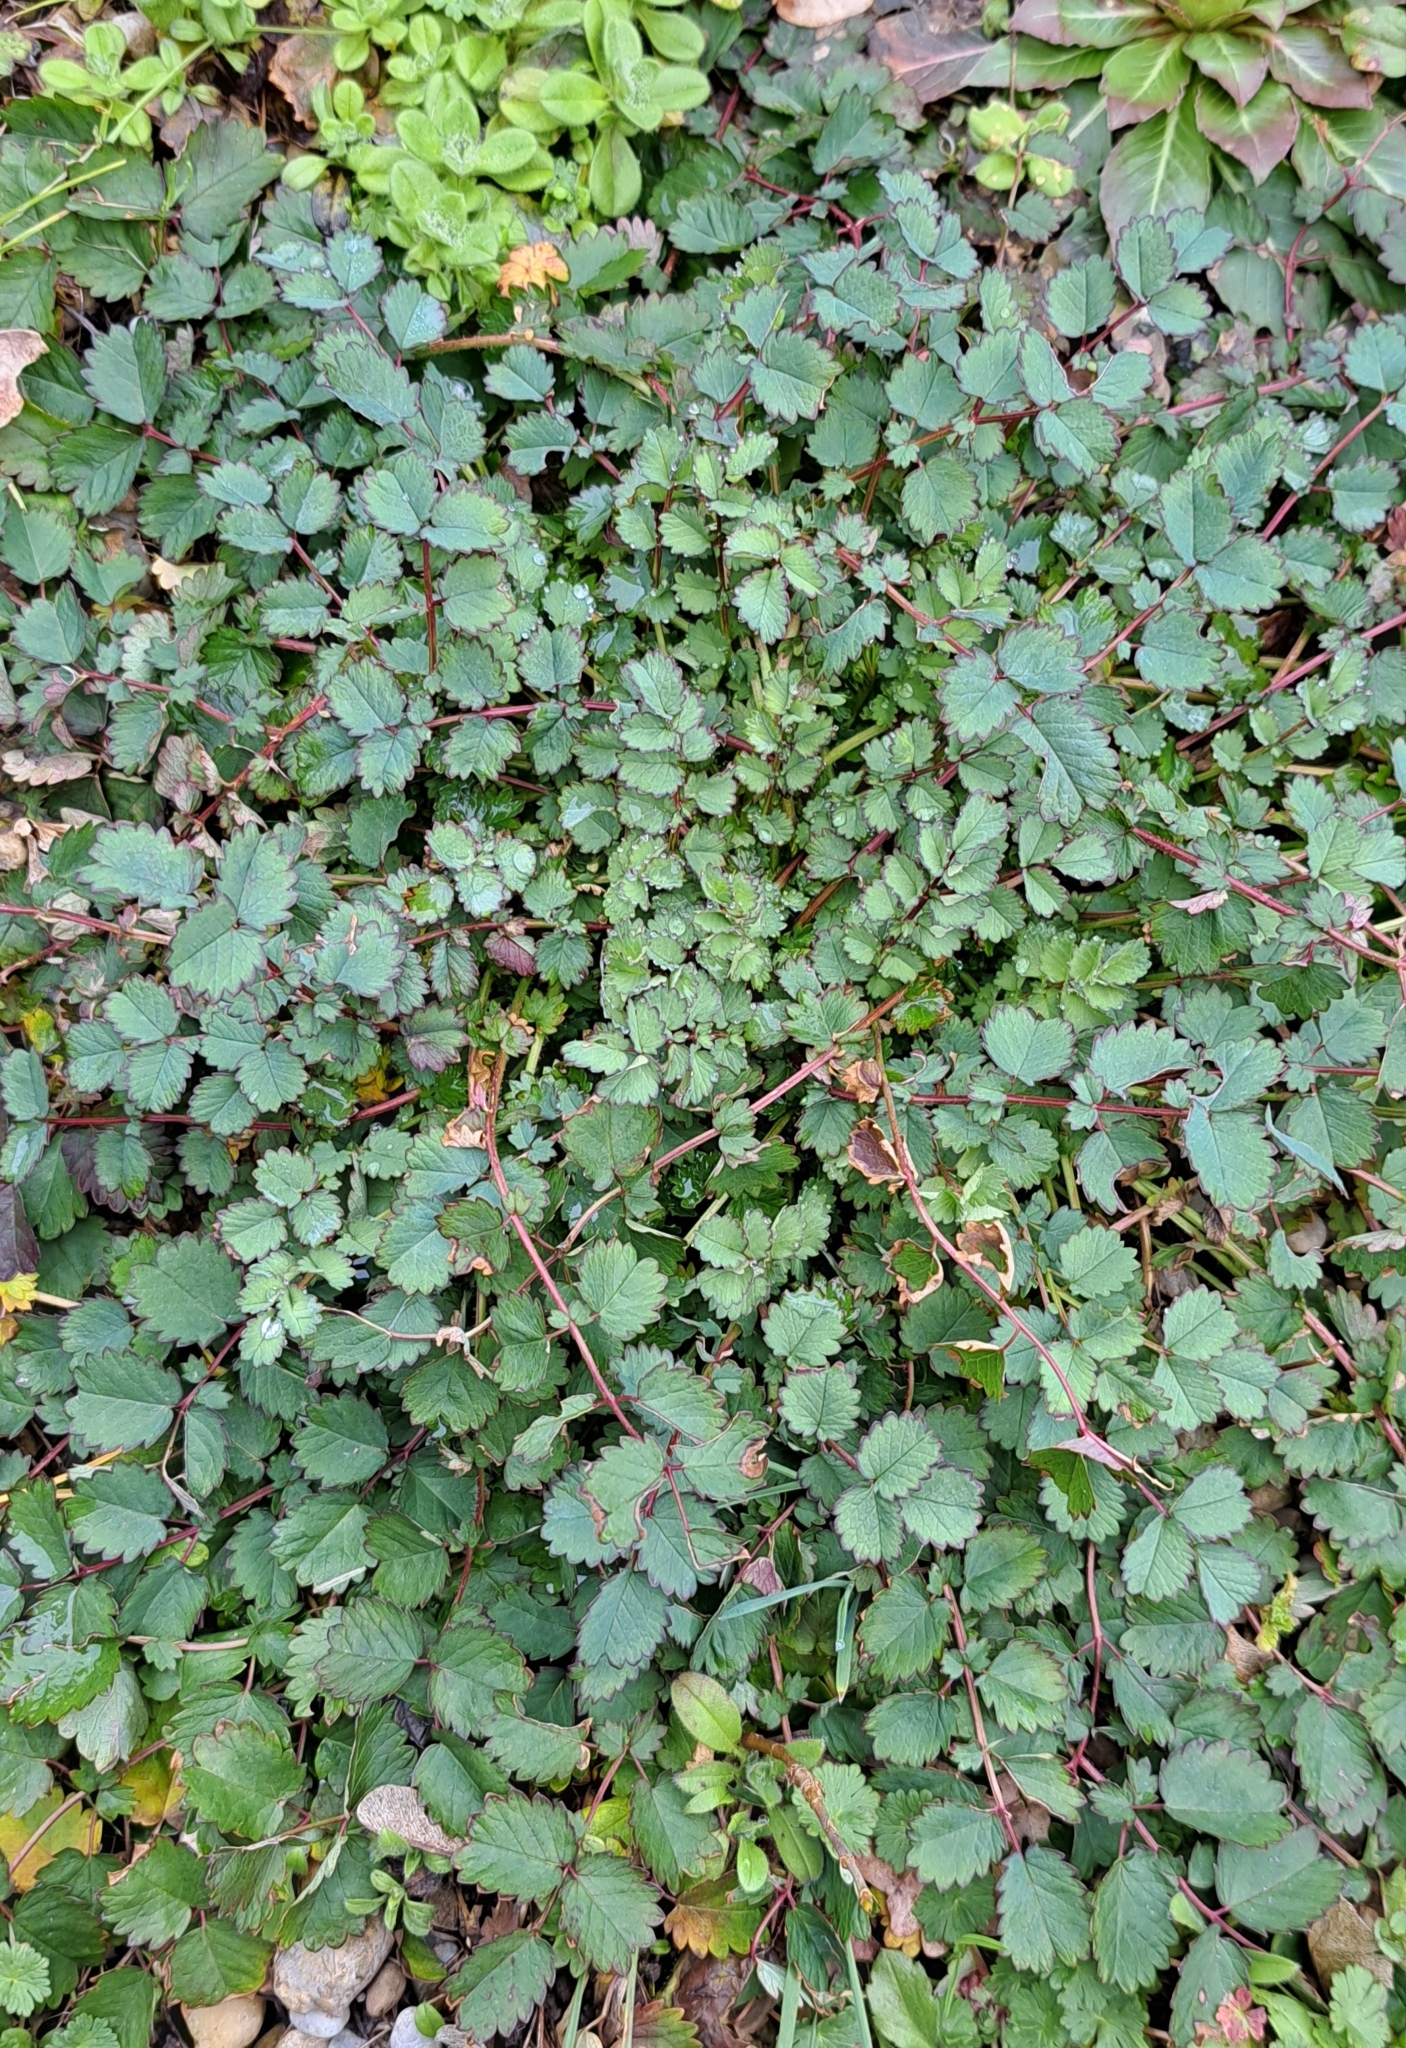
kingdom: Plantae
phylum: Tracheophyta
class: Magnoliopsida
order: Rosales
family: Rosaceae
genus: Poterium
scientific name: Poterium sanguisorba
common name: Salad burnet
